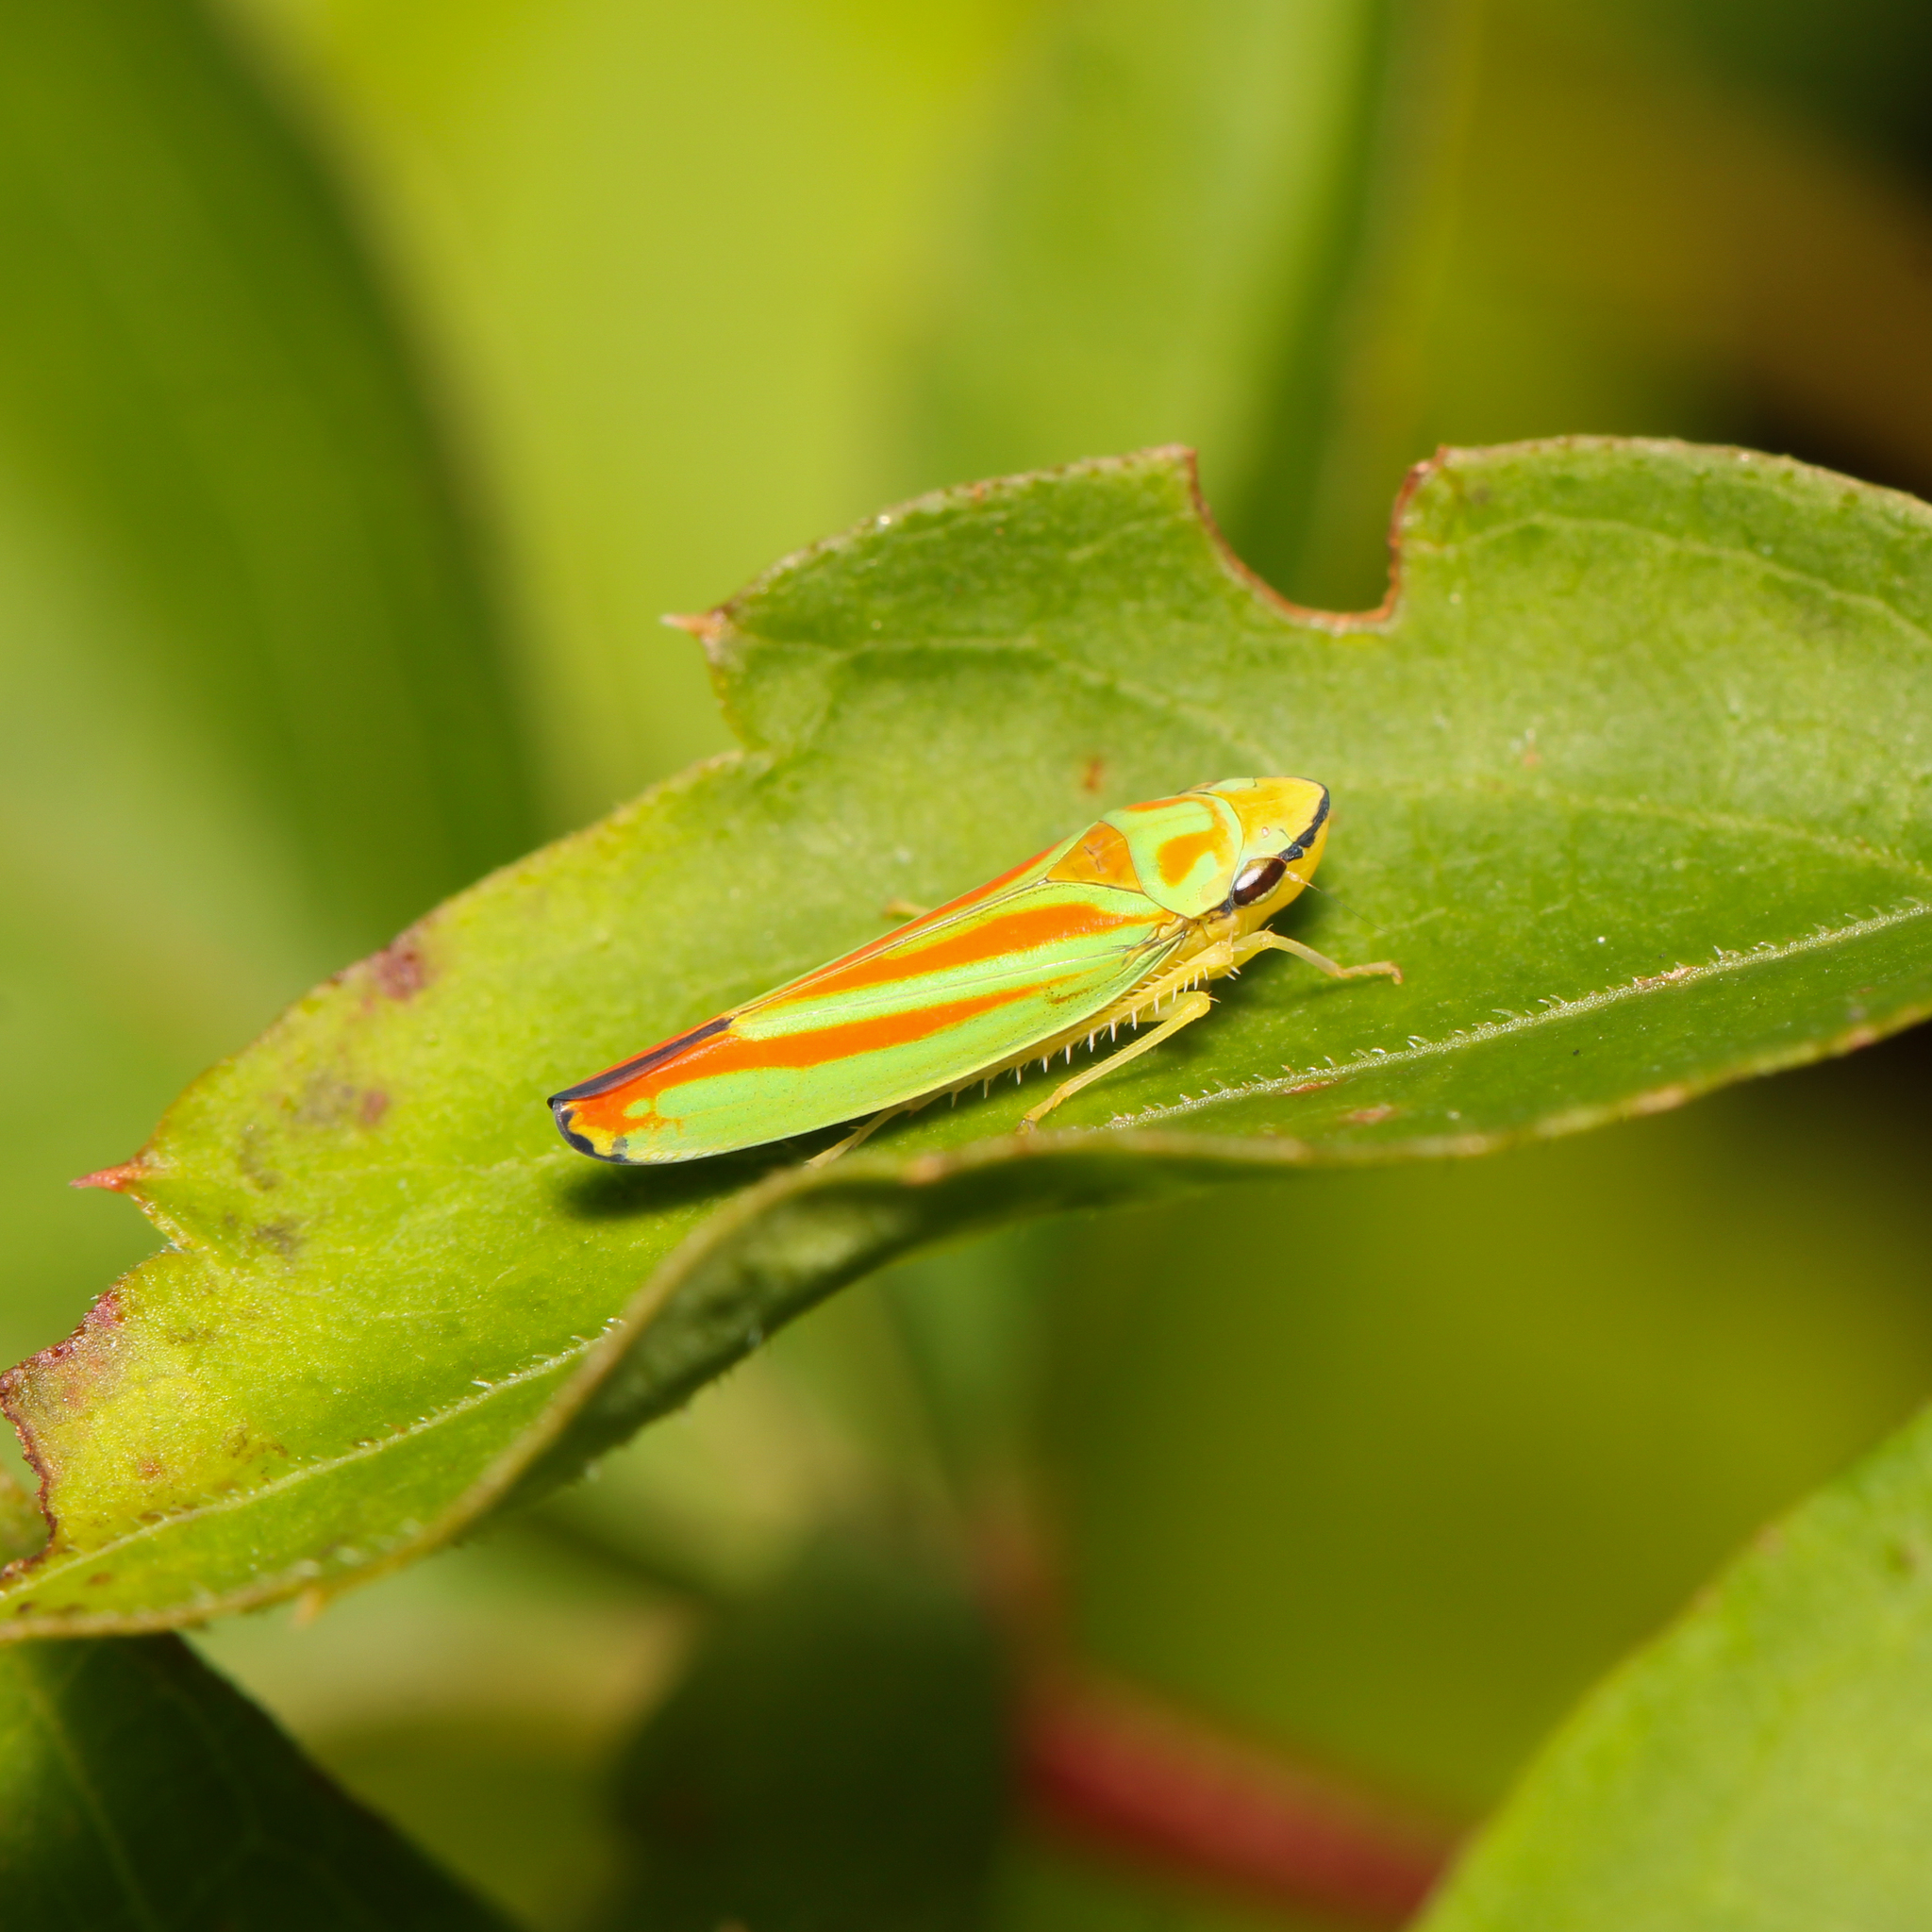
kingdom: Animalia
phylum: Arthropoda
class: Insecta
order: Hemiptera
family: Cicadellidae
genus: Graphocephala
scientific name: Graphocephala fennahi
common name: Rhododendron leafhopper
